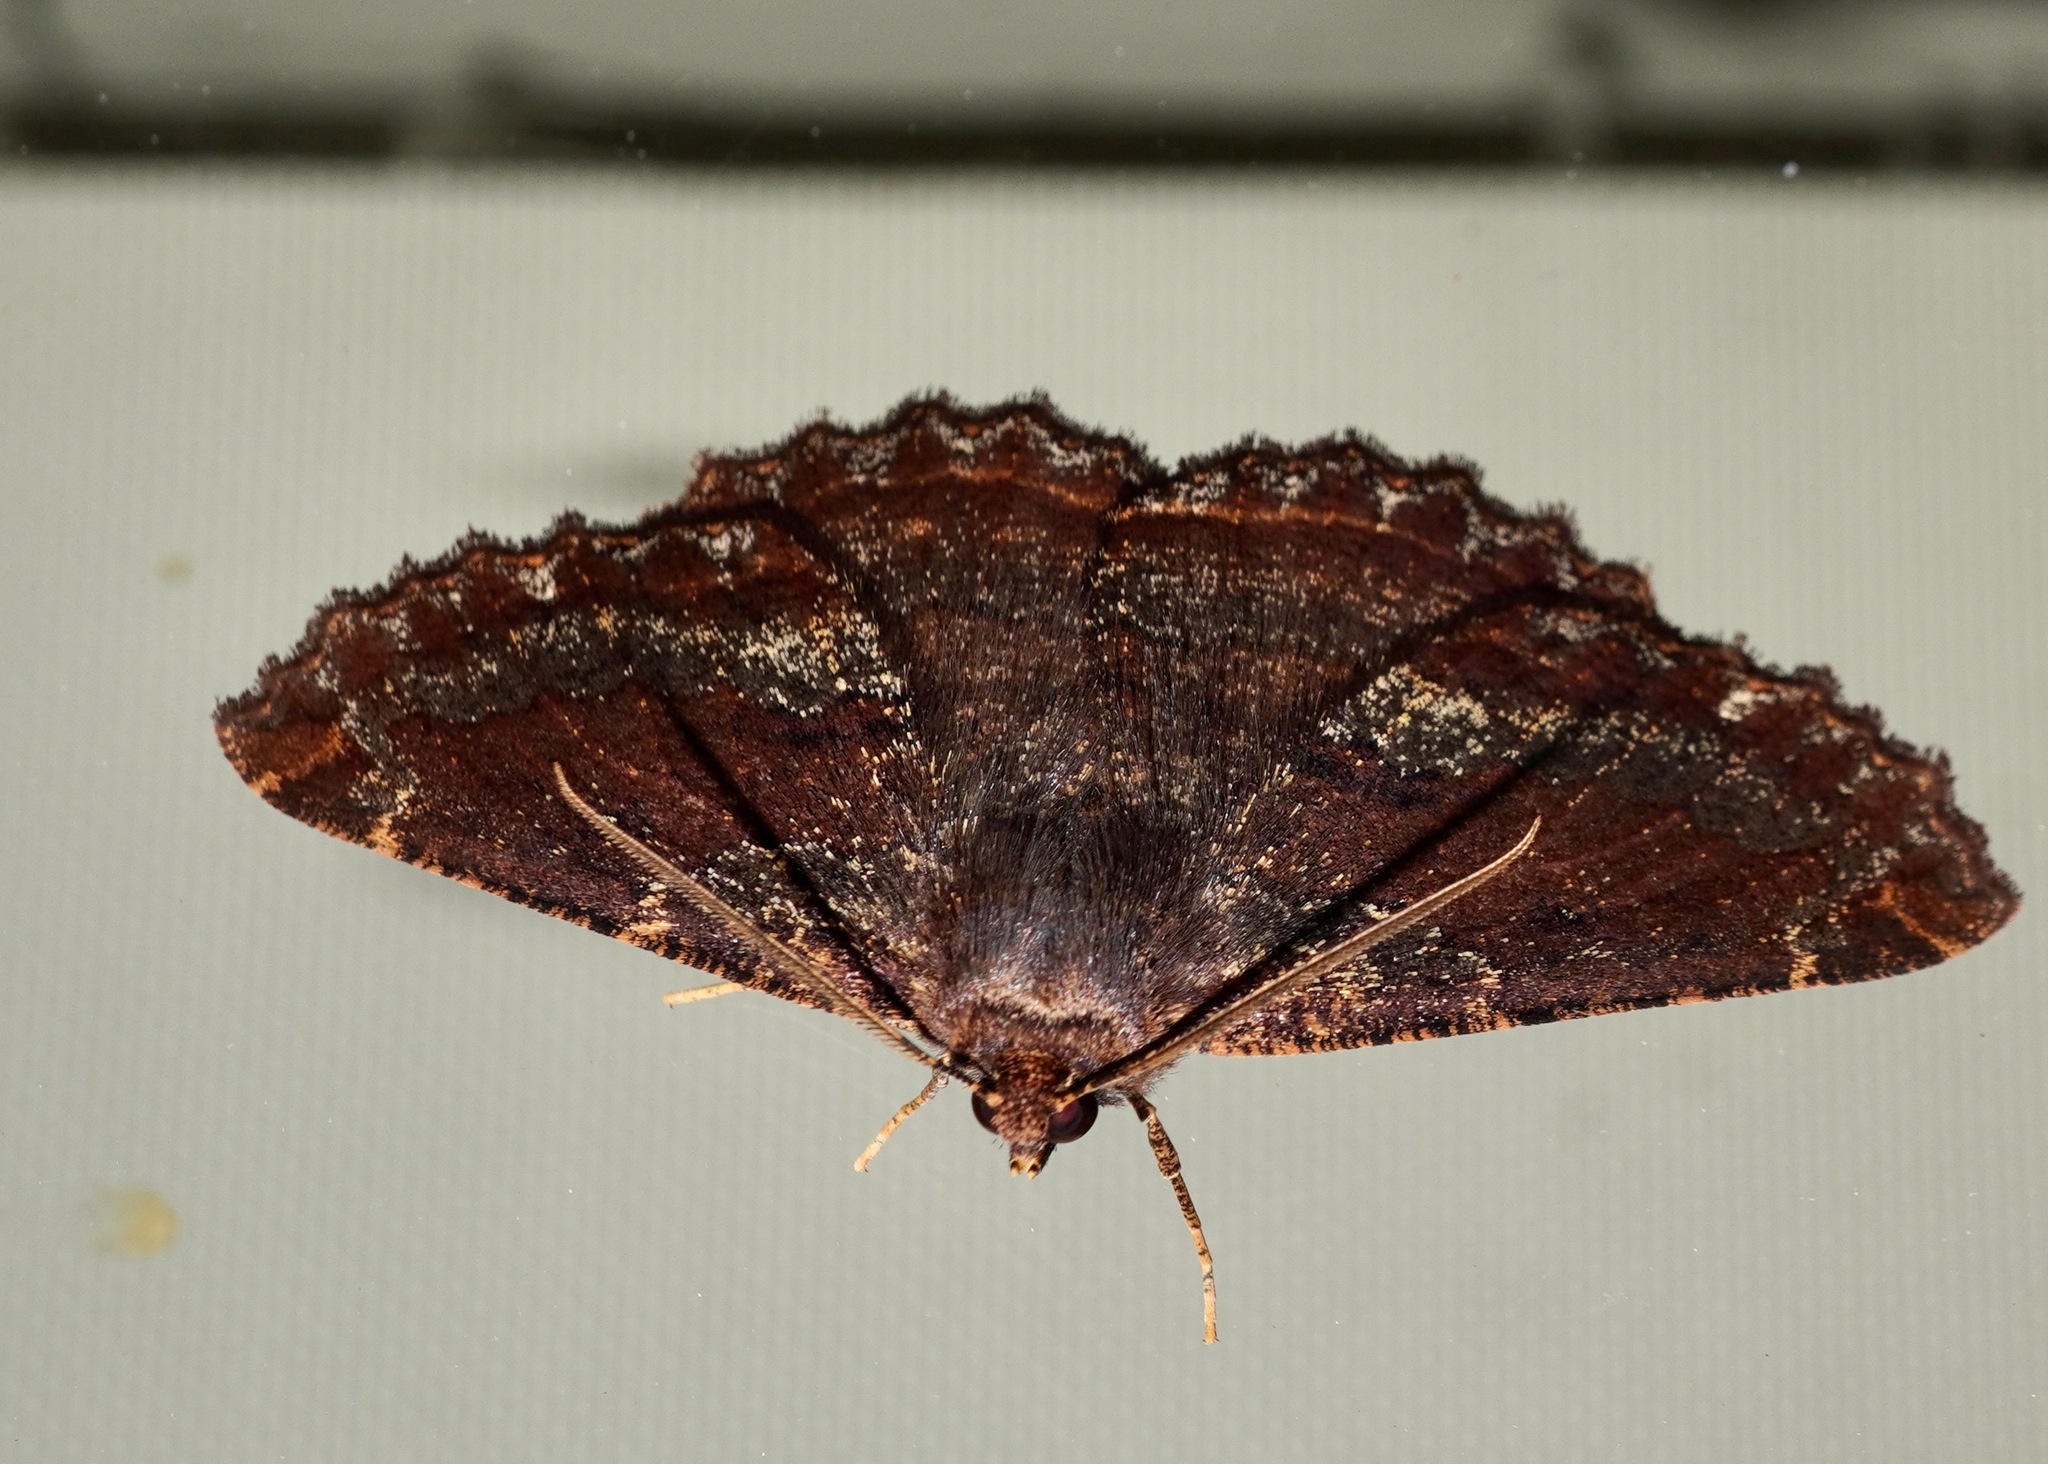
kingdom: Animalia
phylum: Arthropoda
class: Insecta
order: Lepidoptera
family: Geometridae
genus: Gellonia
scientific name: Gellonia dejectaria
